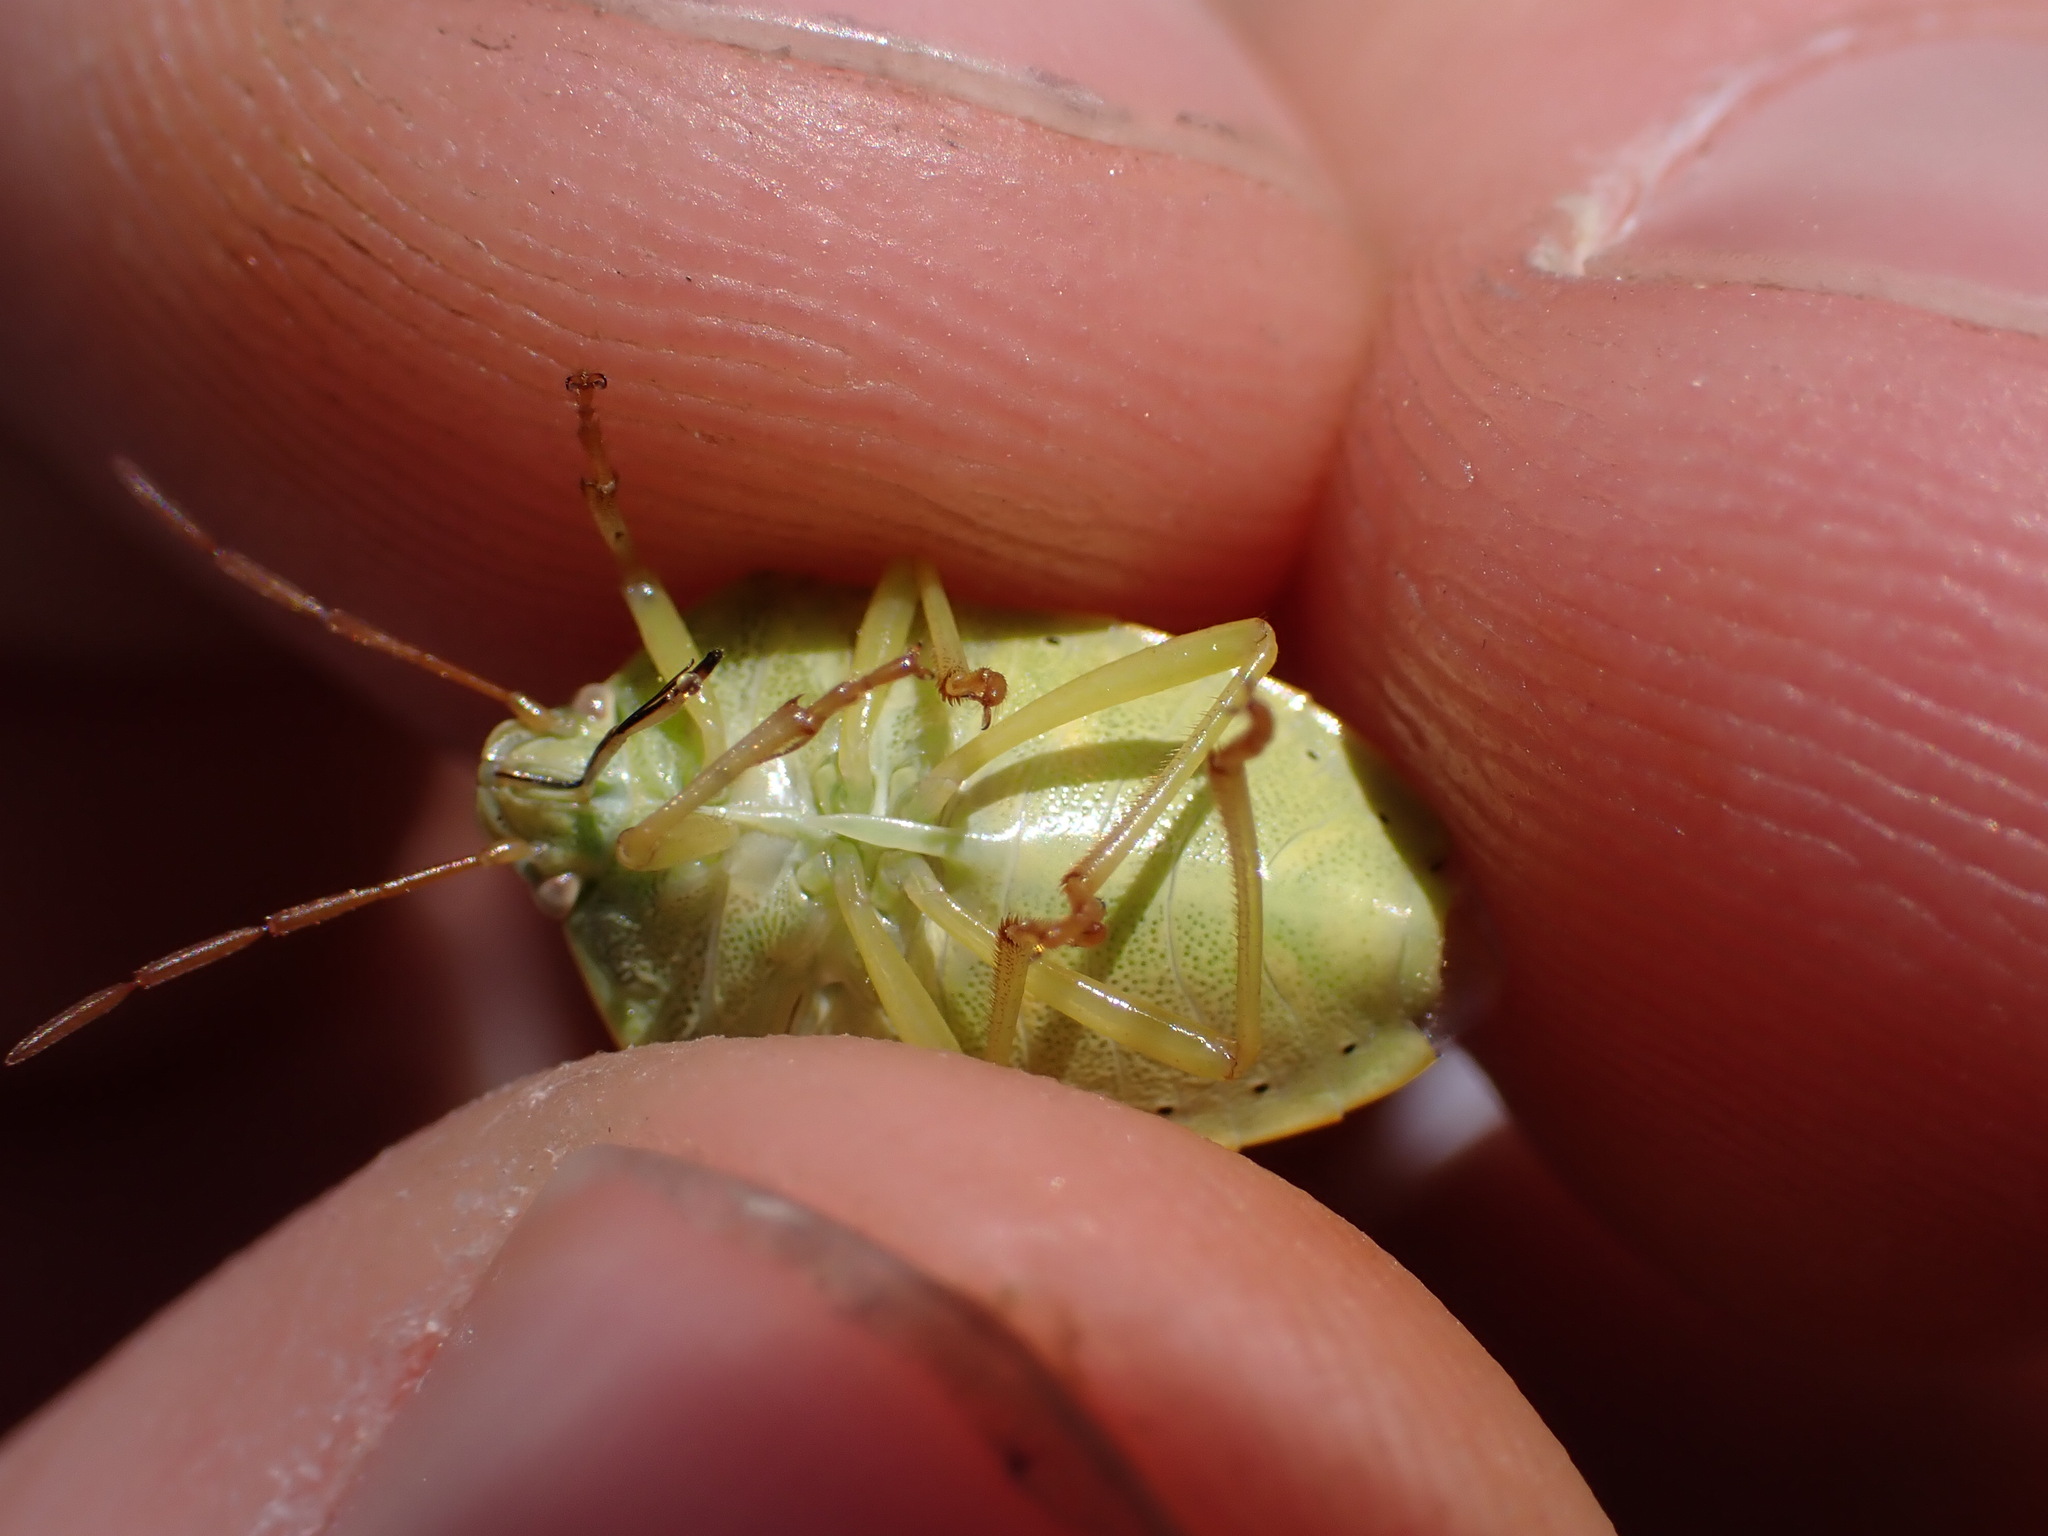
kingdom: Animalia
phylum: Arthropoda
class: Insecta
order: Hemiptera
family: Pentatomidae
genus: Piezodorus
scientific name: Piezodorus lituratus
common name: Stink bug
